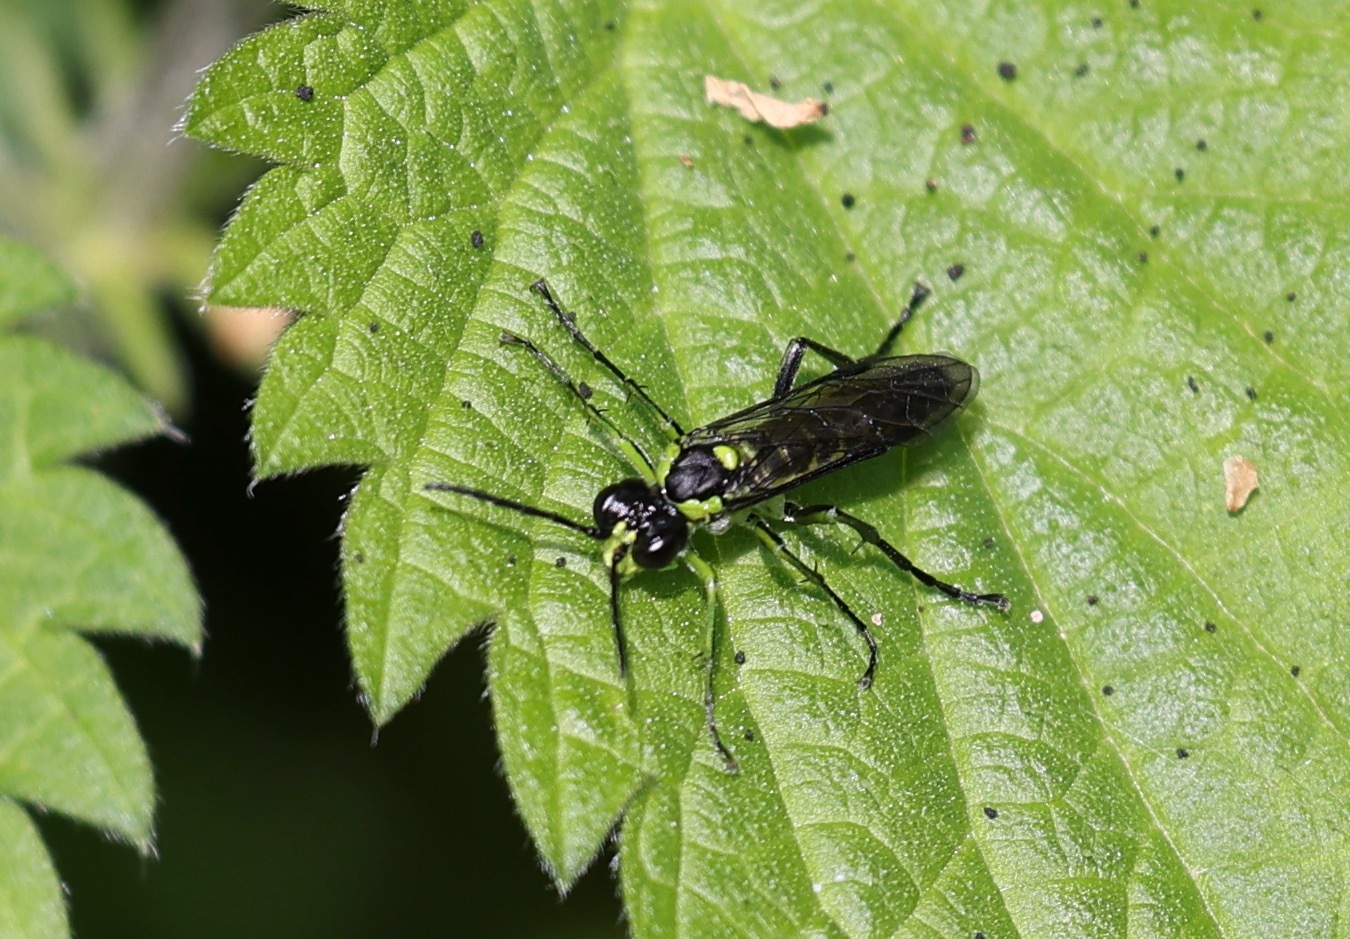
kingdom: Animalia
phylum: Arthropoda
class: Insecta
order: Hymenoptera
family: Tenthredinidae
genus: Tenthredo
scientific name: Tenthredo mesomela
